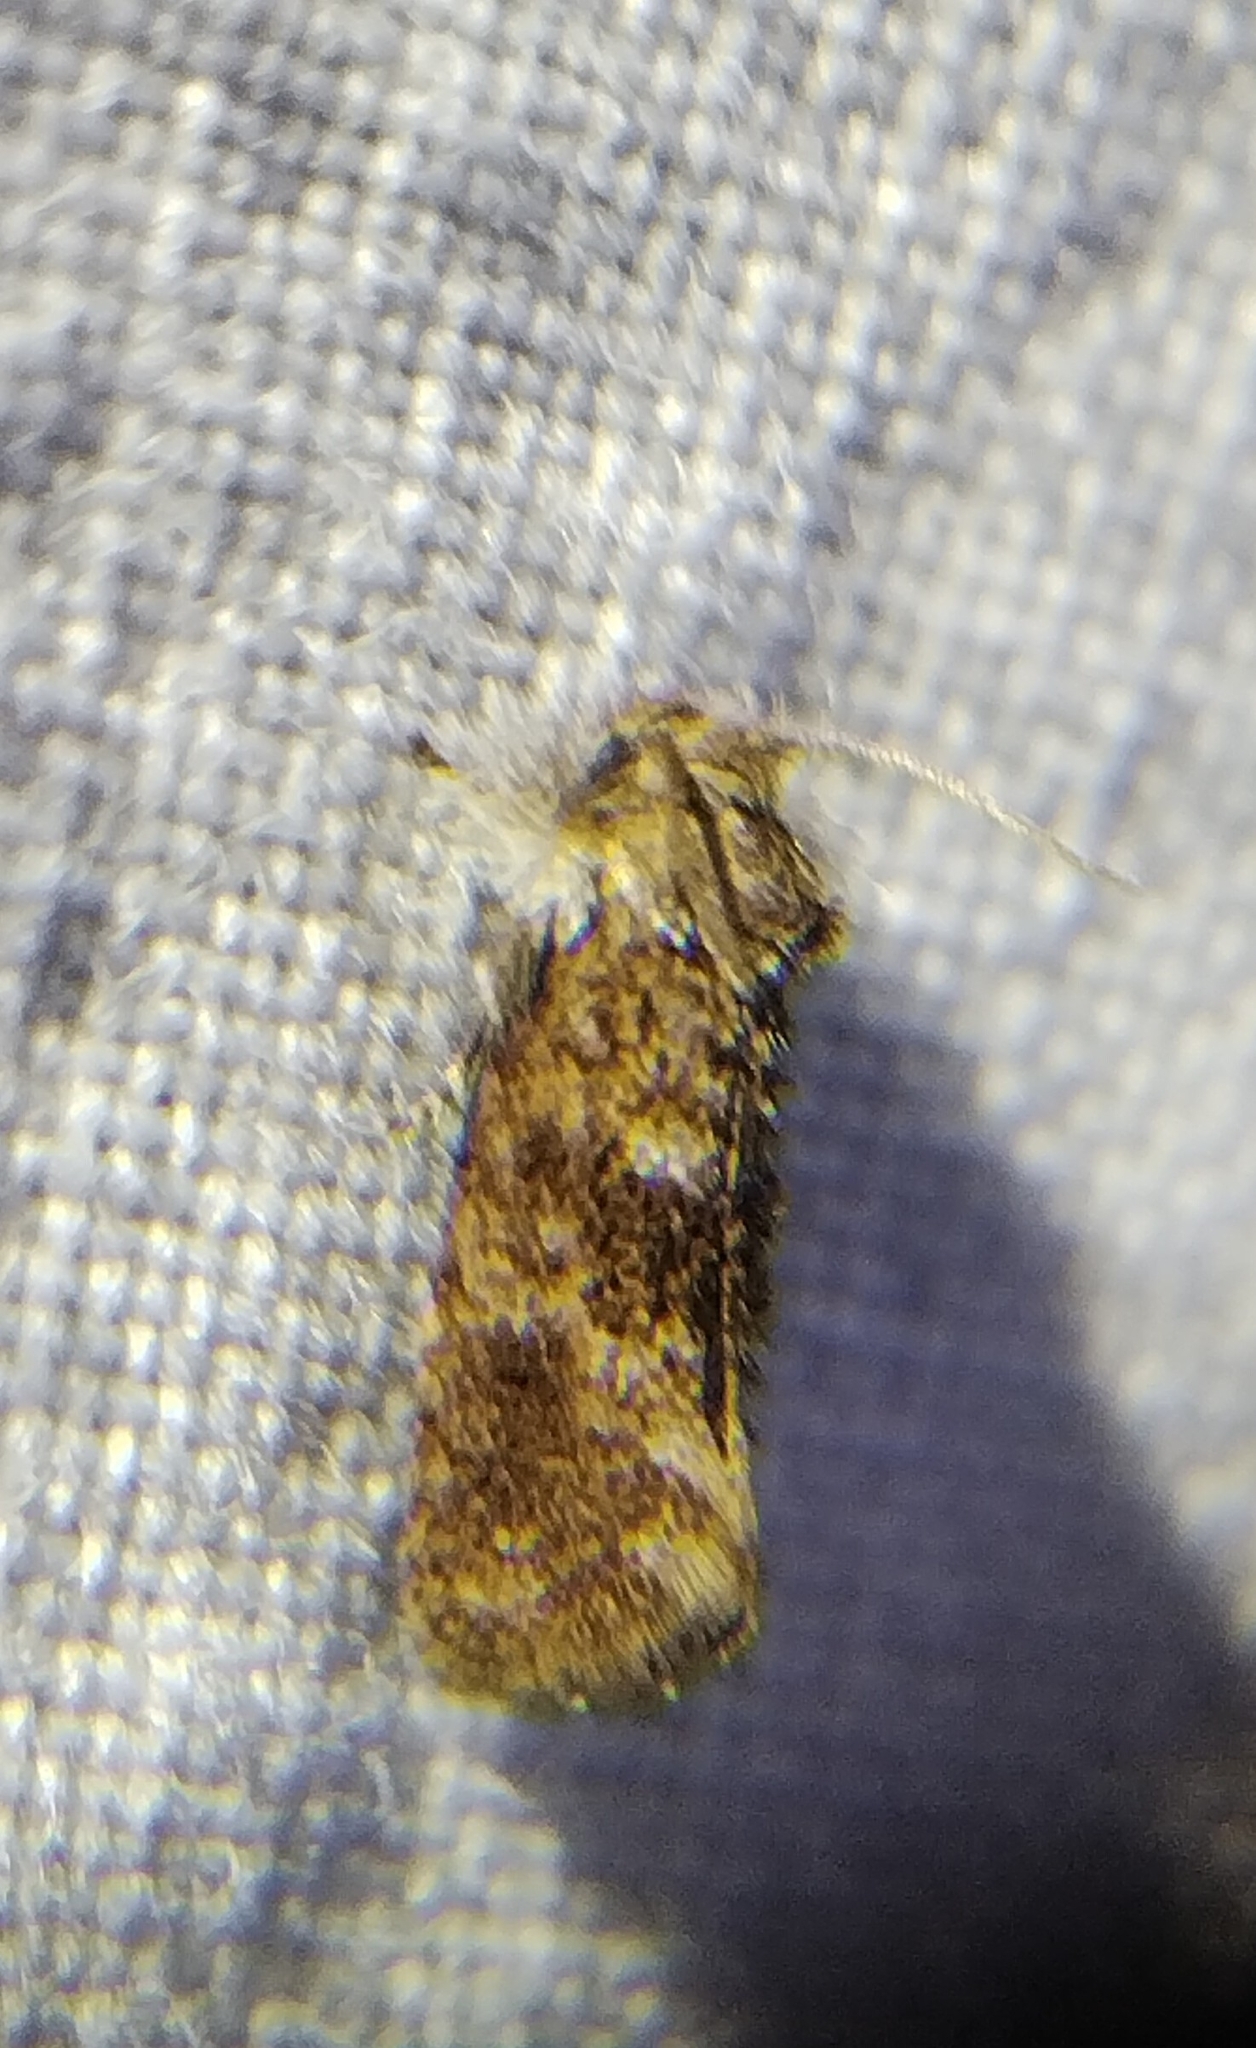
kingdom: Animalia
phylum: Arthropoda
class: Insecta
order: Lepidoptera
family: Tineidae
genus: Acrolophus
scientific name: Acrolophus panamae
